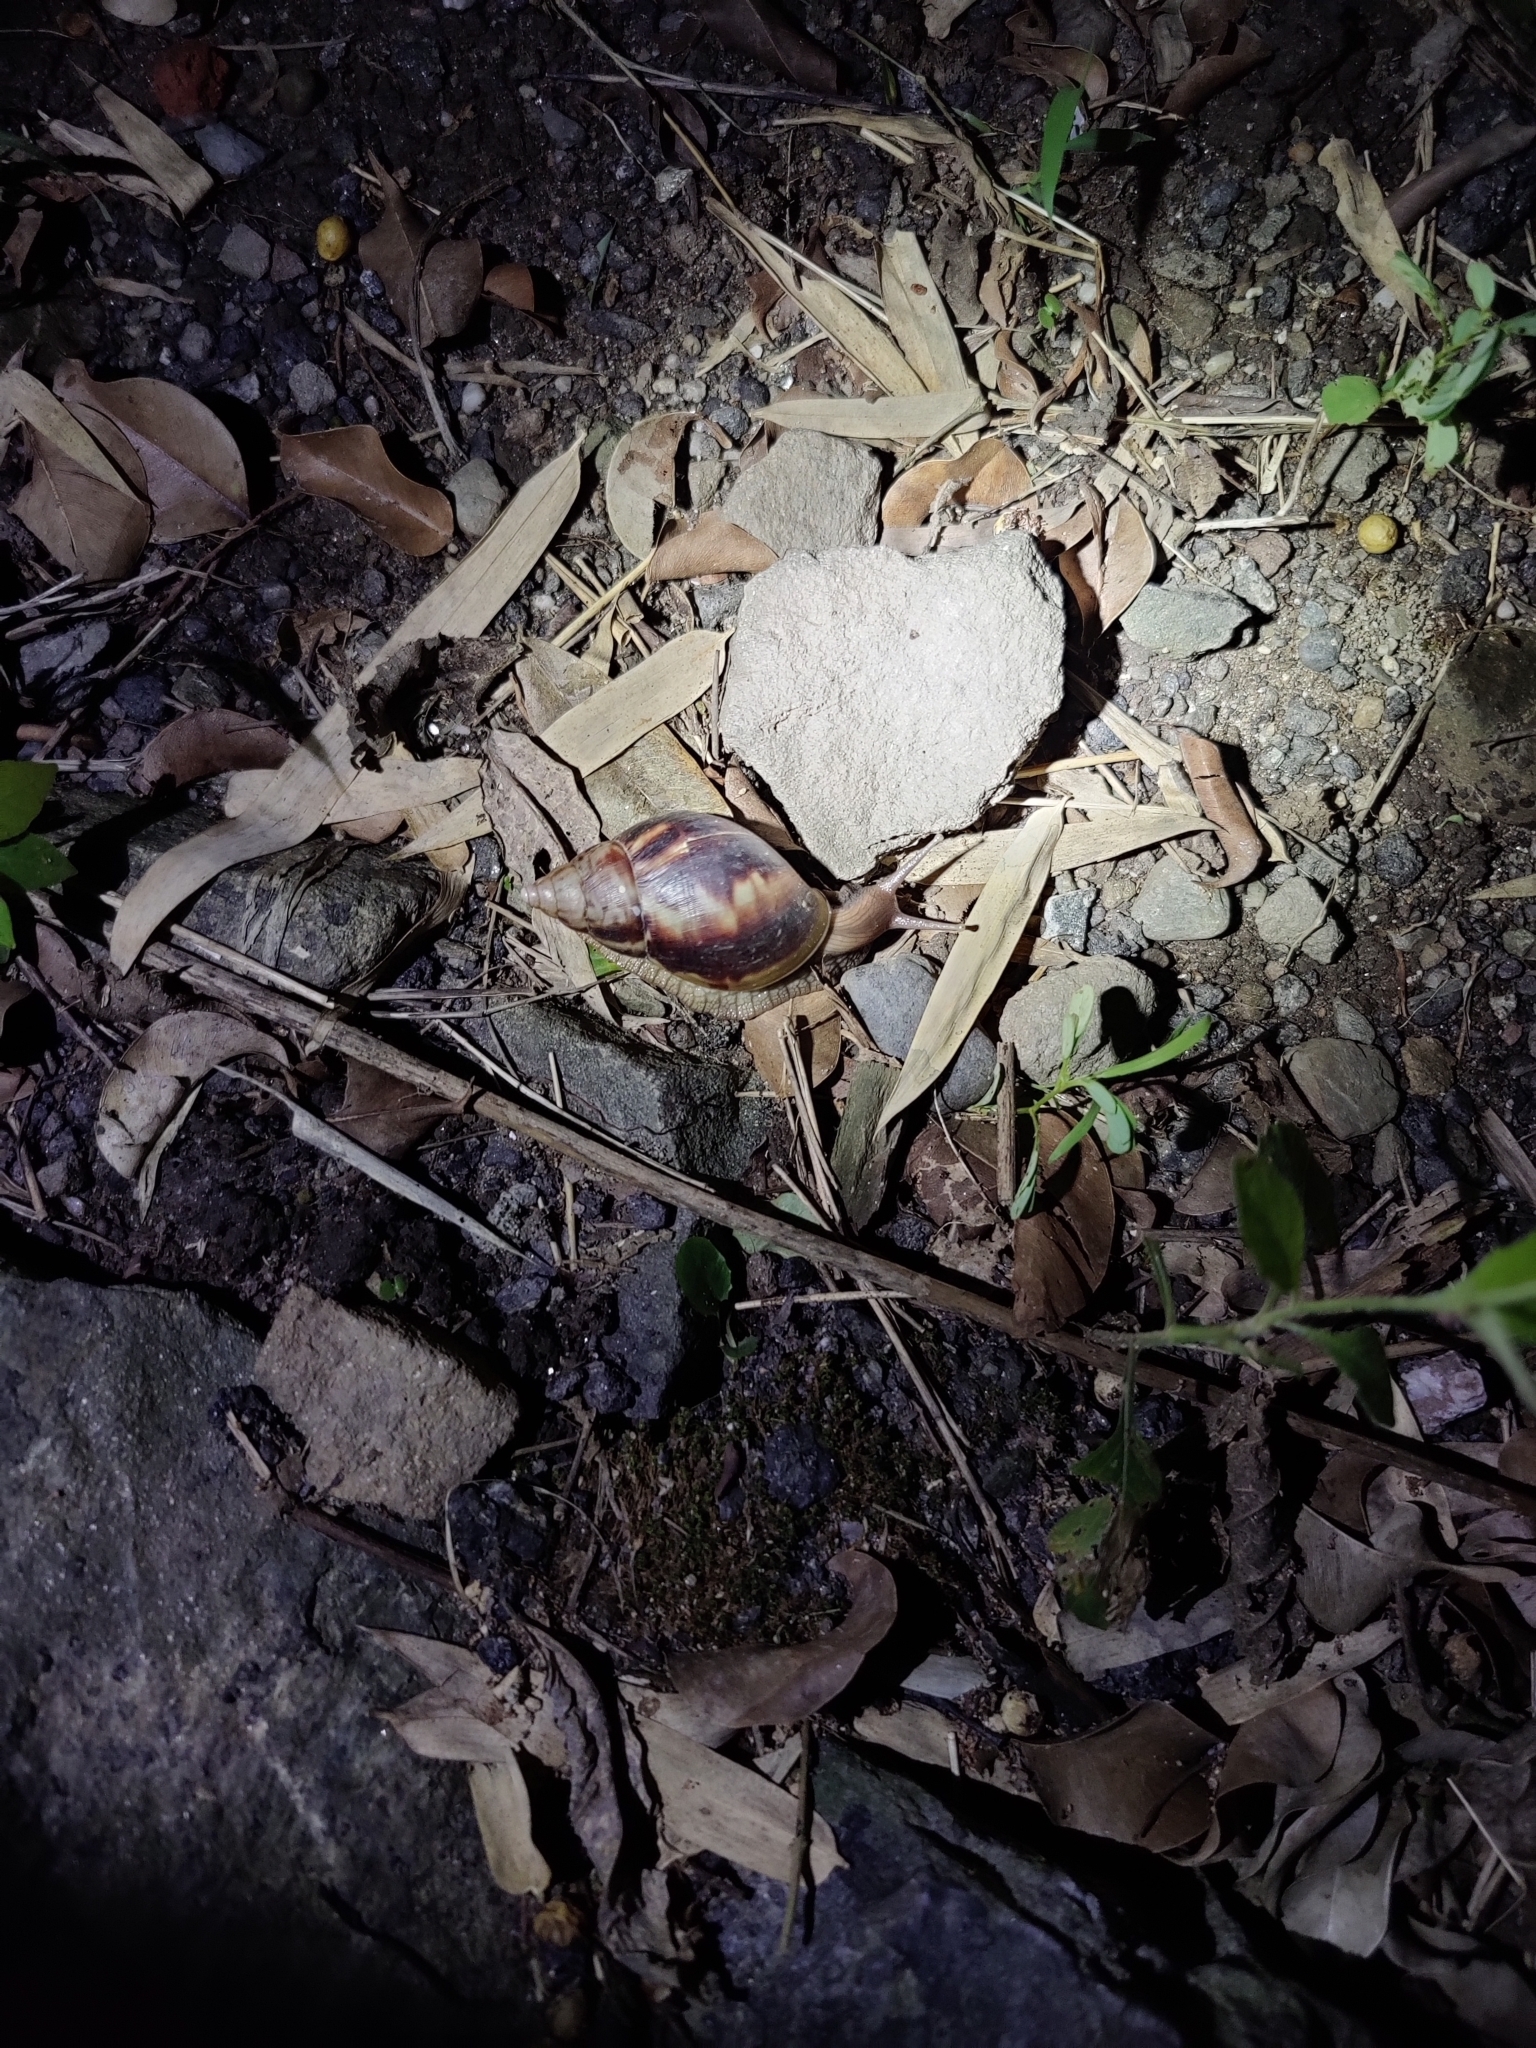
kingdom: Animalia
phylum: Mollusca
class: Gastropoda
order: Stylommatophora
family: Achatinidae
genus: Lissachatina
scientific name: Lissachatina fulica
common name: Giant african snail
